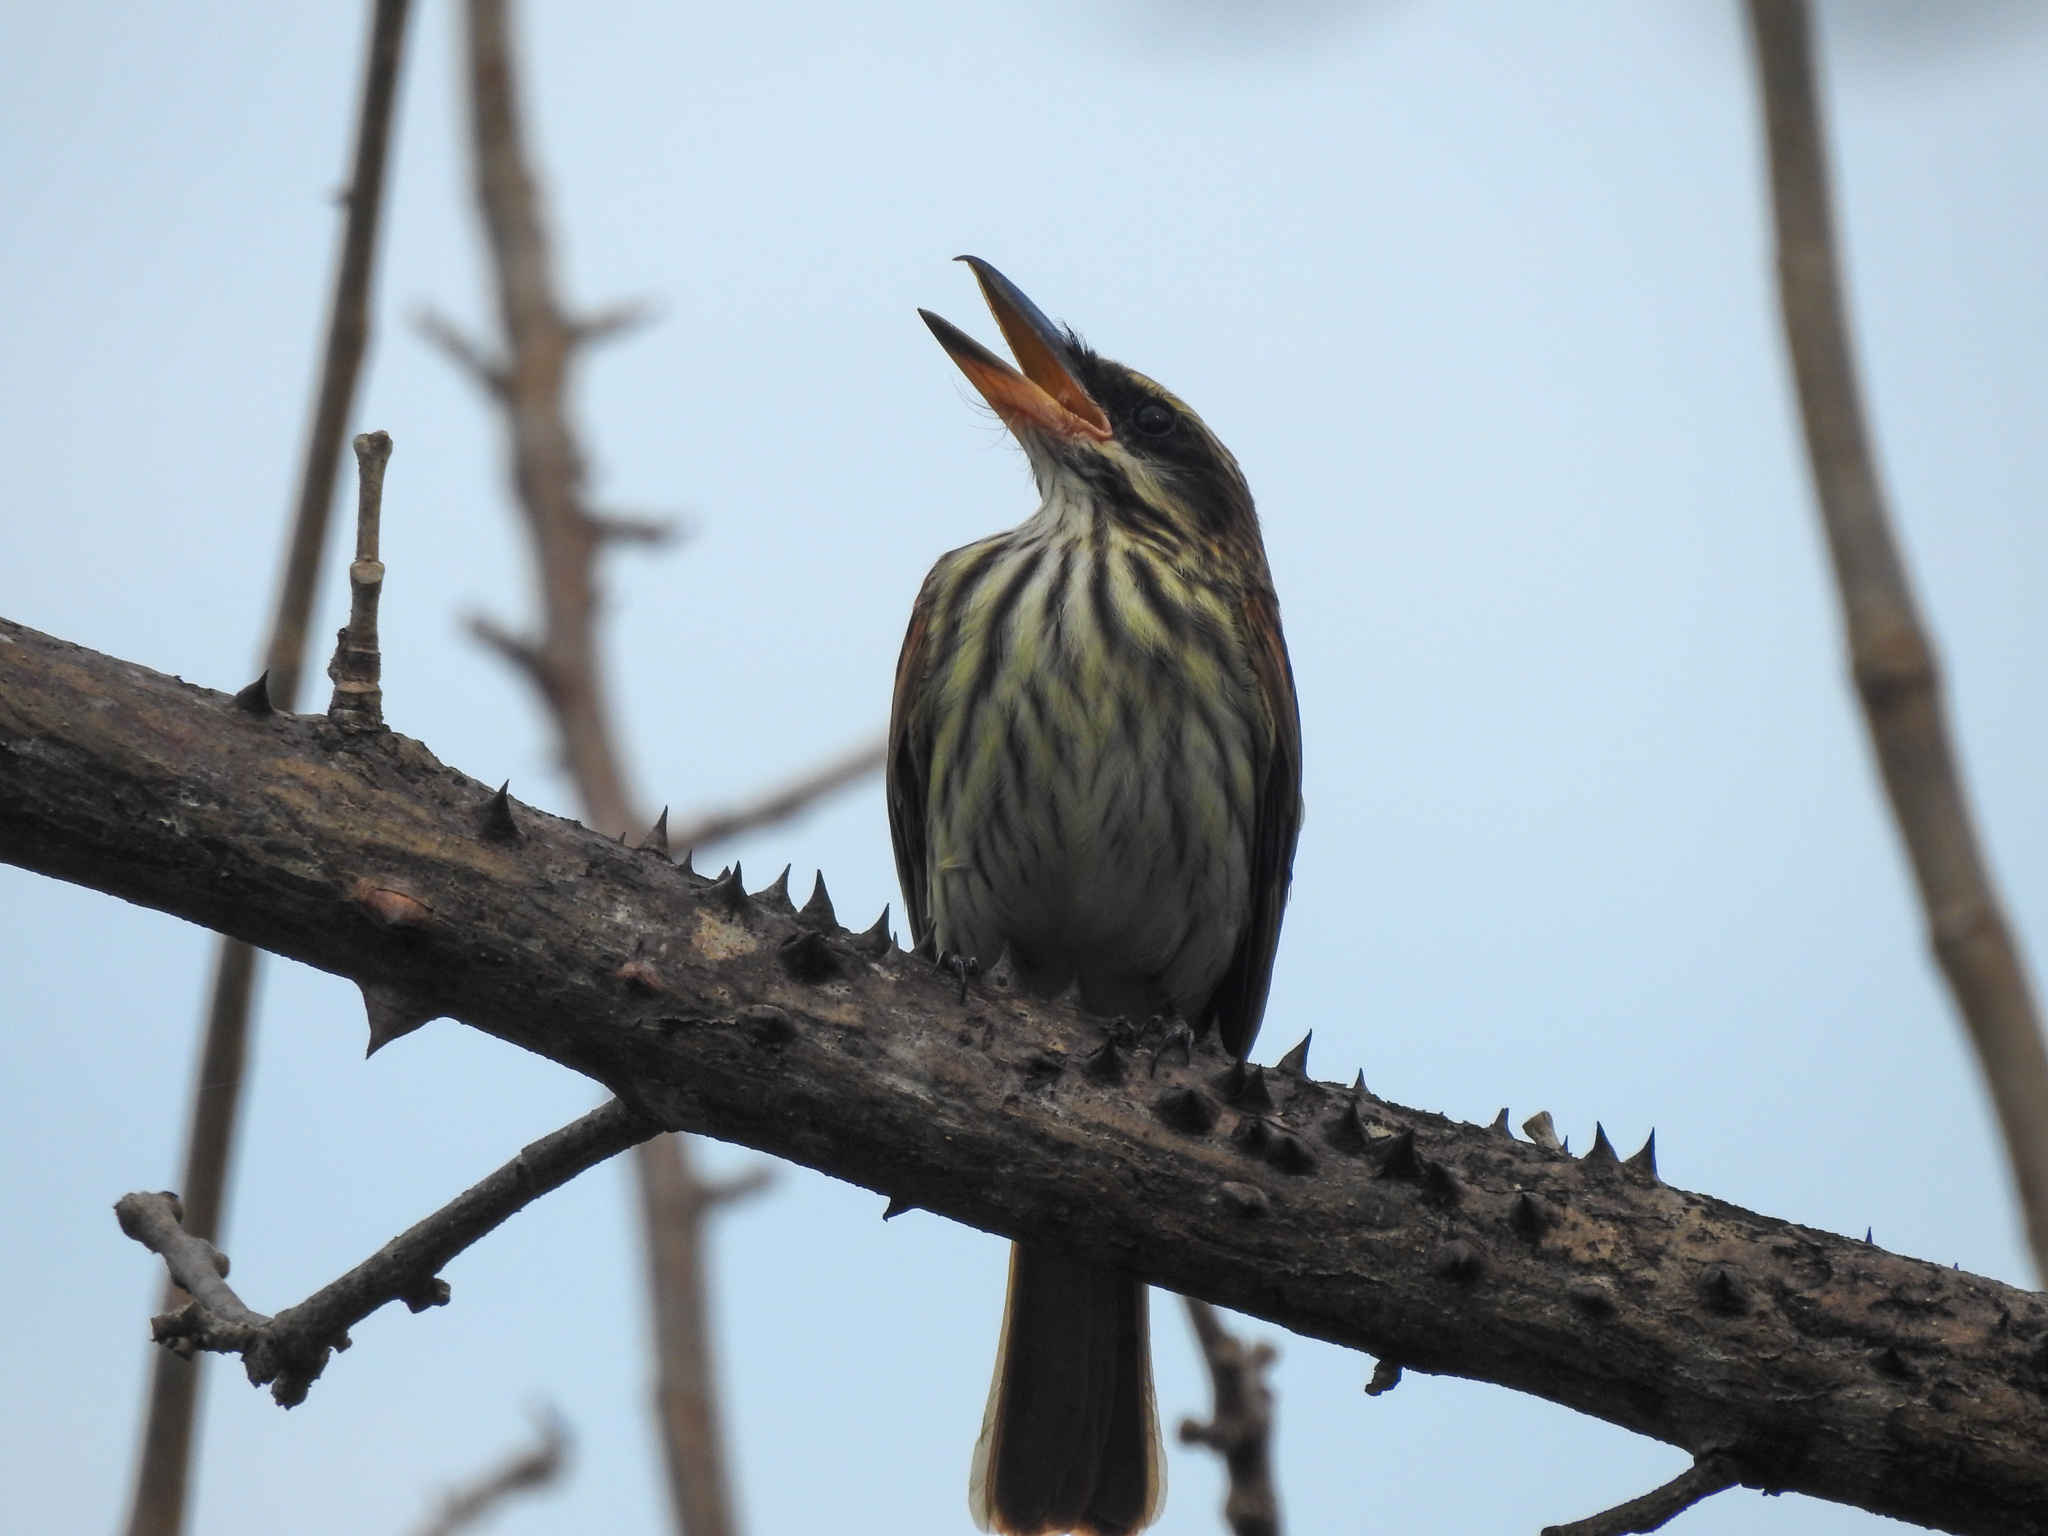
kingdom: Animalia
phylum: Chordata
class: Aves
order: Passeriformes
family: Tyrannidae
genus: Myiodynastes
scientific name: Myiodynastes maculatus
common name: Streaked flycatcher
